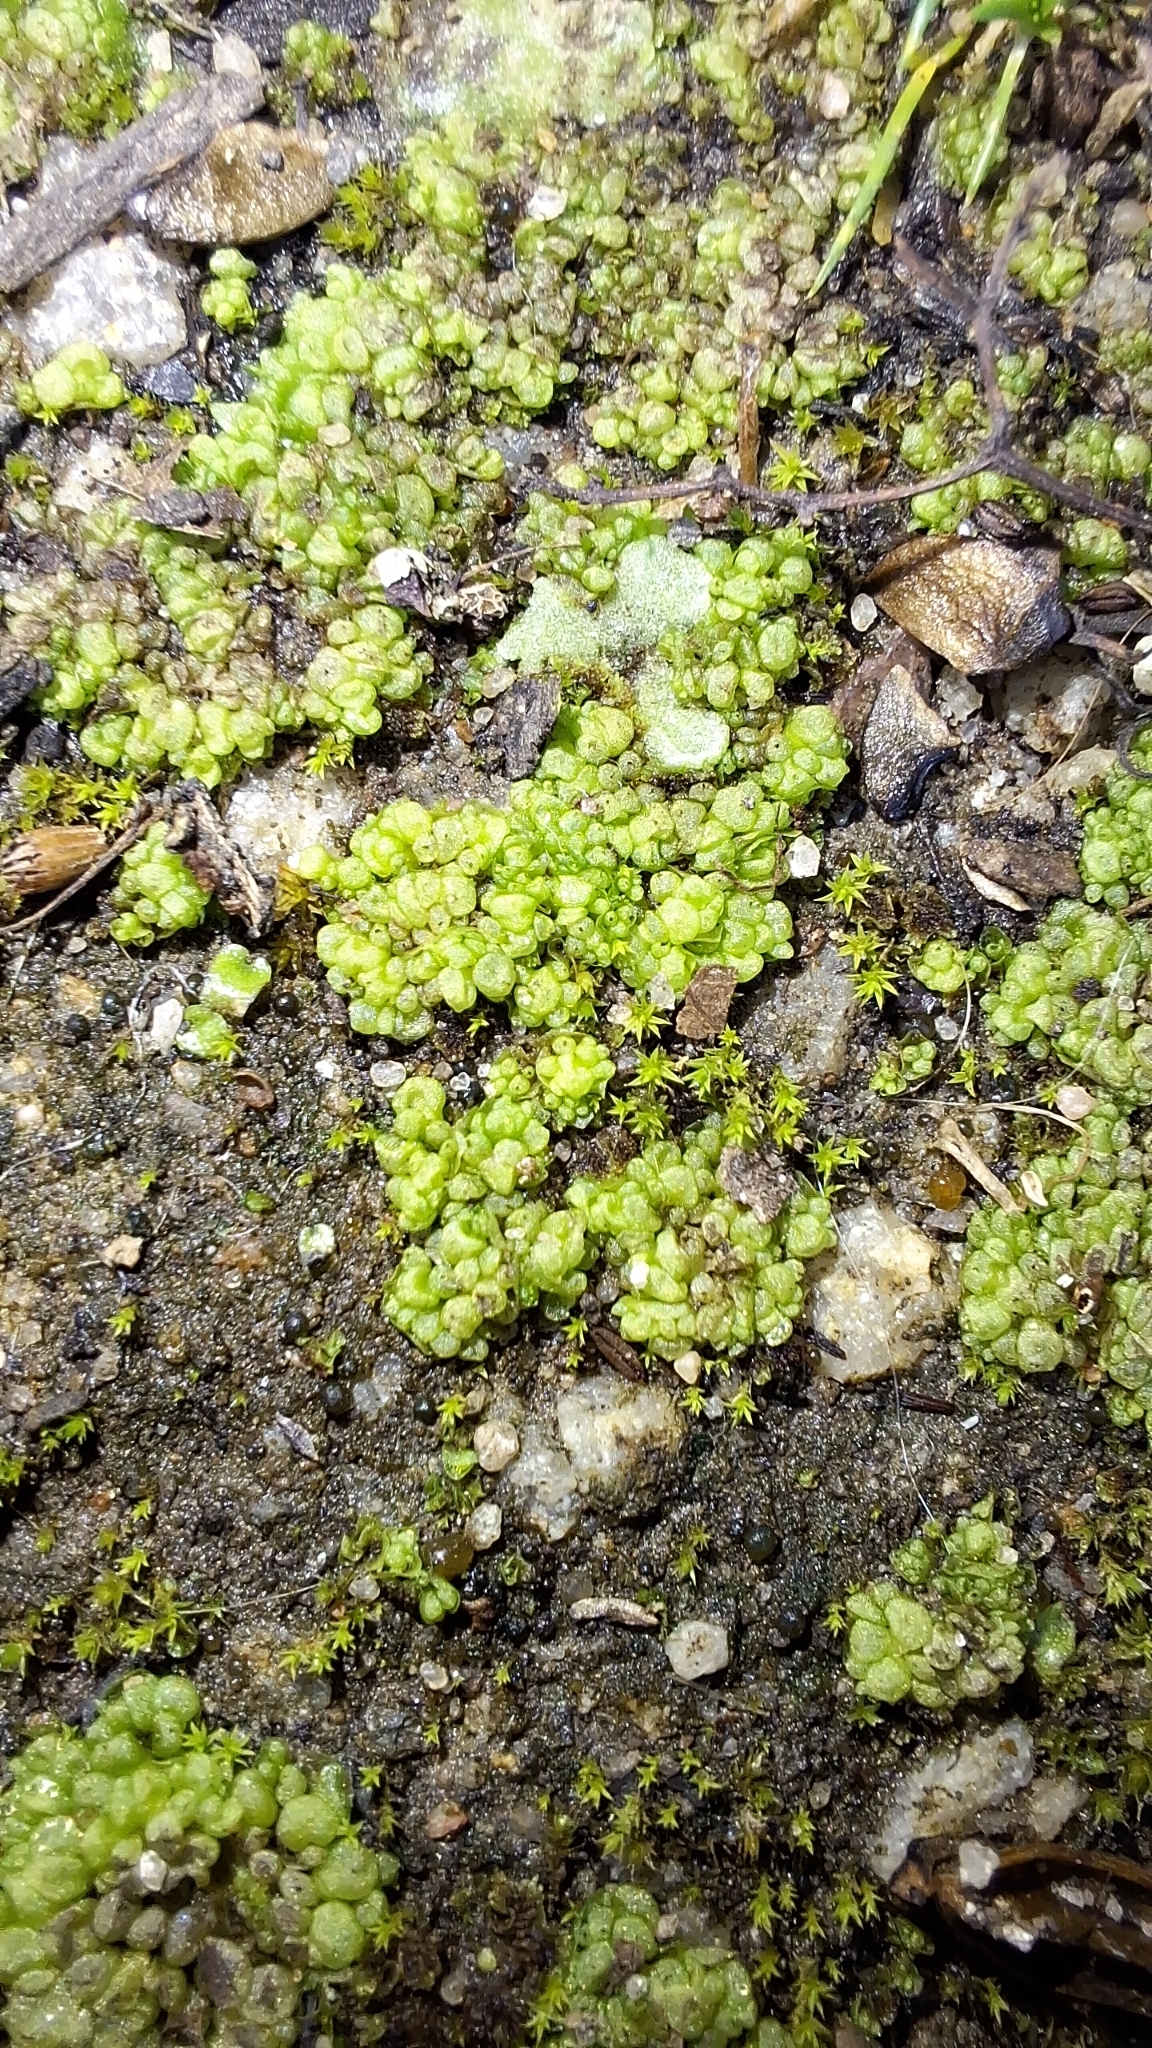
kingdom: Plantae
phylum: Marchantiophyta
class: Marchantiopsida
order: Sphaerocarpales
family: Sphaerocarpaceae
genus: Sphaerocarpos
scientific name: Sphaerocarpos texanus
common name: Texas balloonwort
